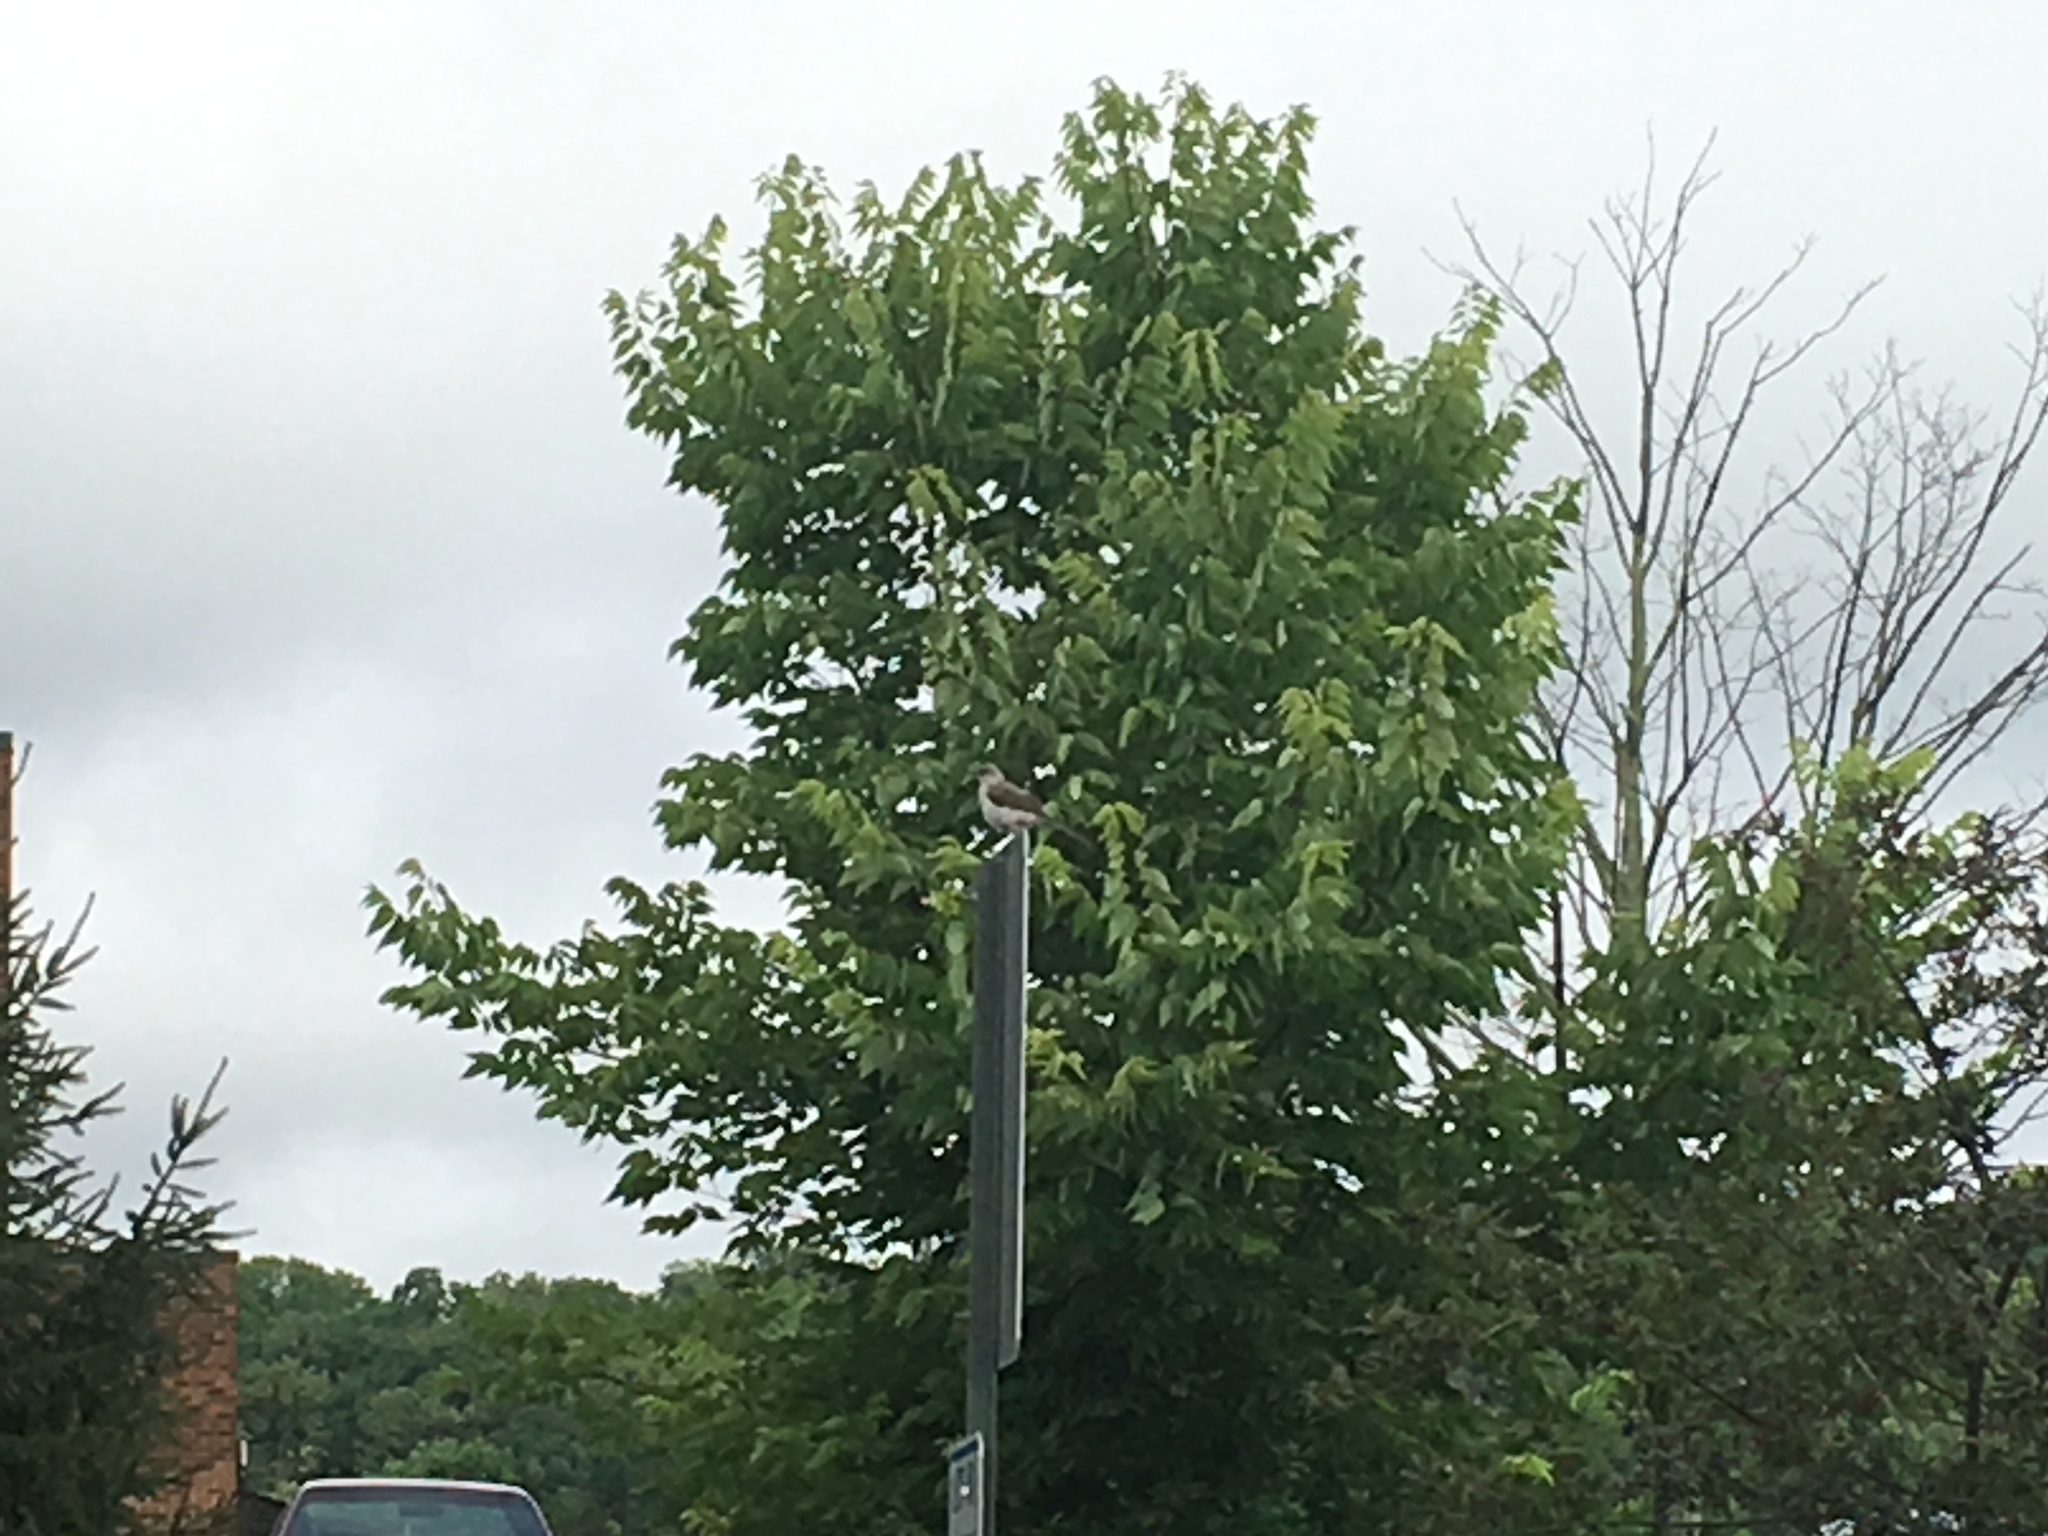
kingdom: Animalia
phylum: Chordata
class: Aves
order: Passeriformes
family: Mimidae
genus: Mimus
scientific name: Mimus polyglottos
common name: Northern mockingbird
